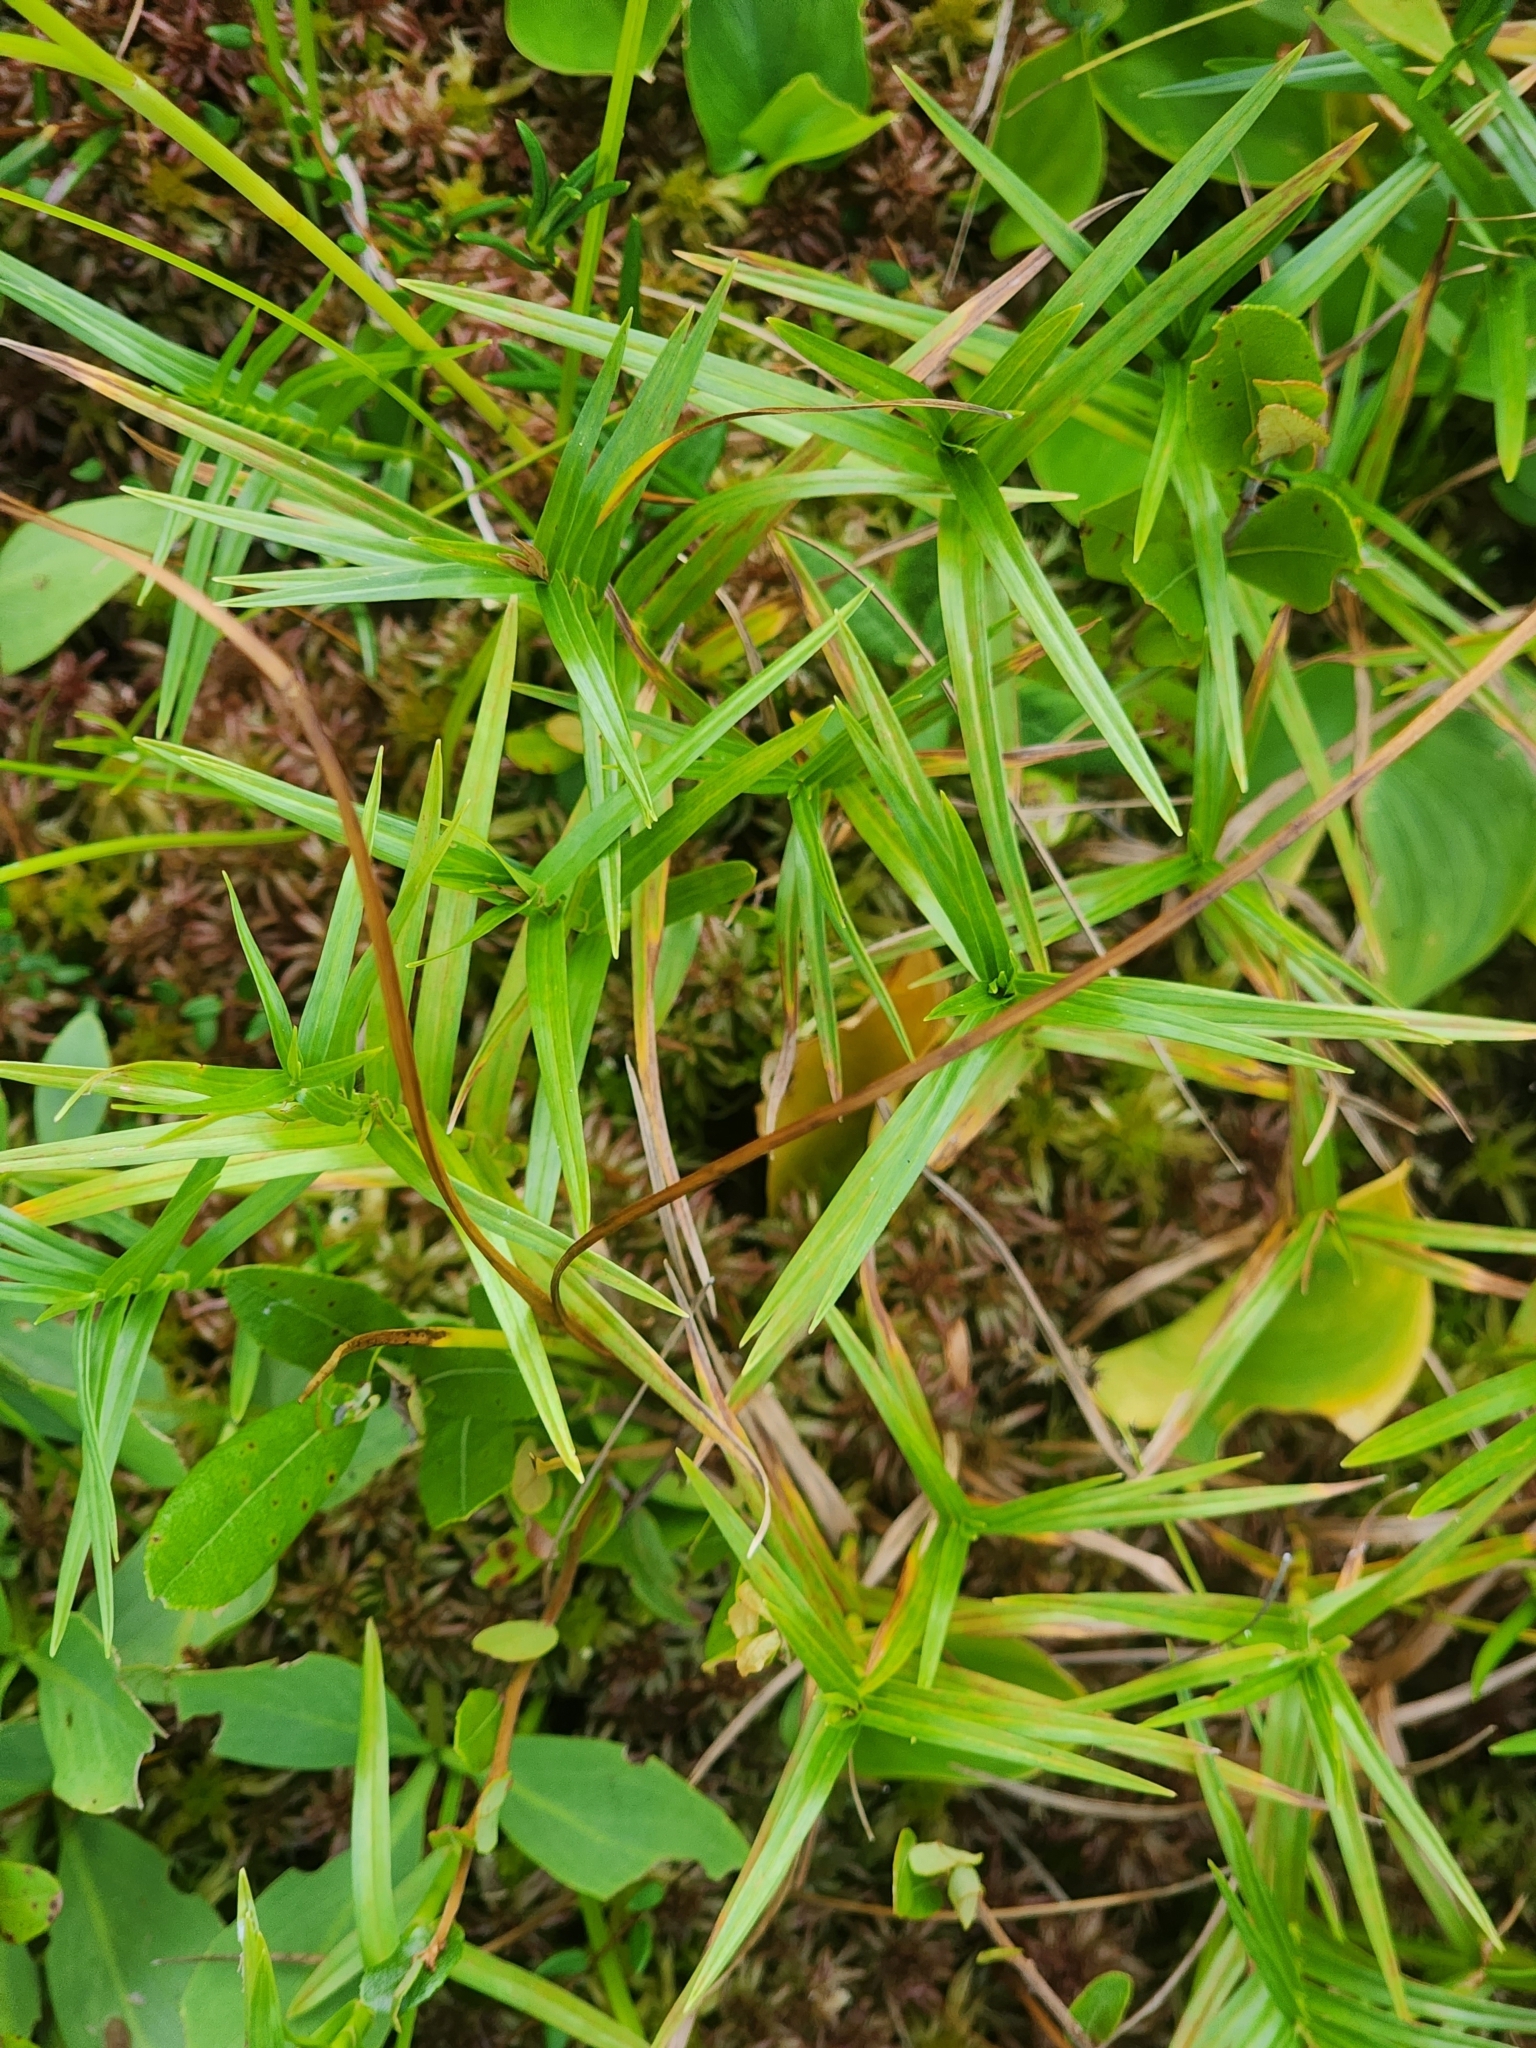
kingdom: Plantae
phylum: Tracheophyta
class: Liliopsida
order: Poales
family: Cyperaceae
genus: Dulichium
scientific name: Dulichium arundinaceum
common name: Three-way sedge
